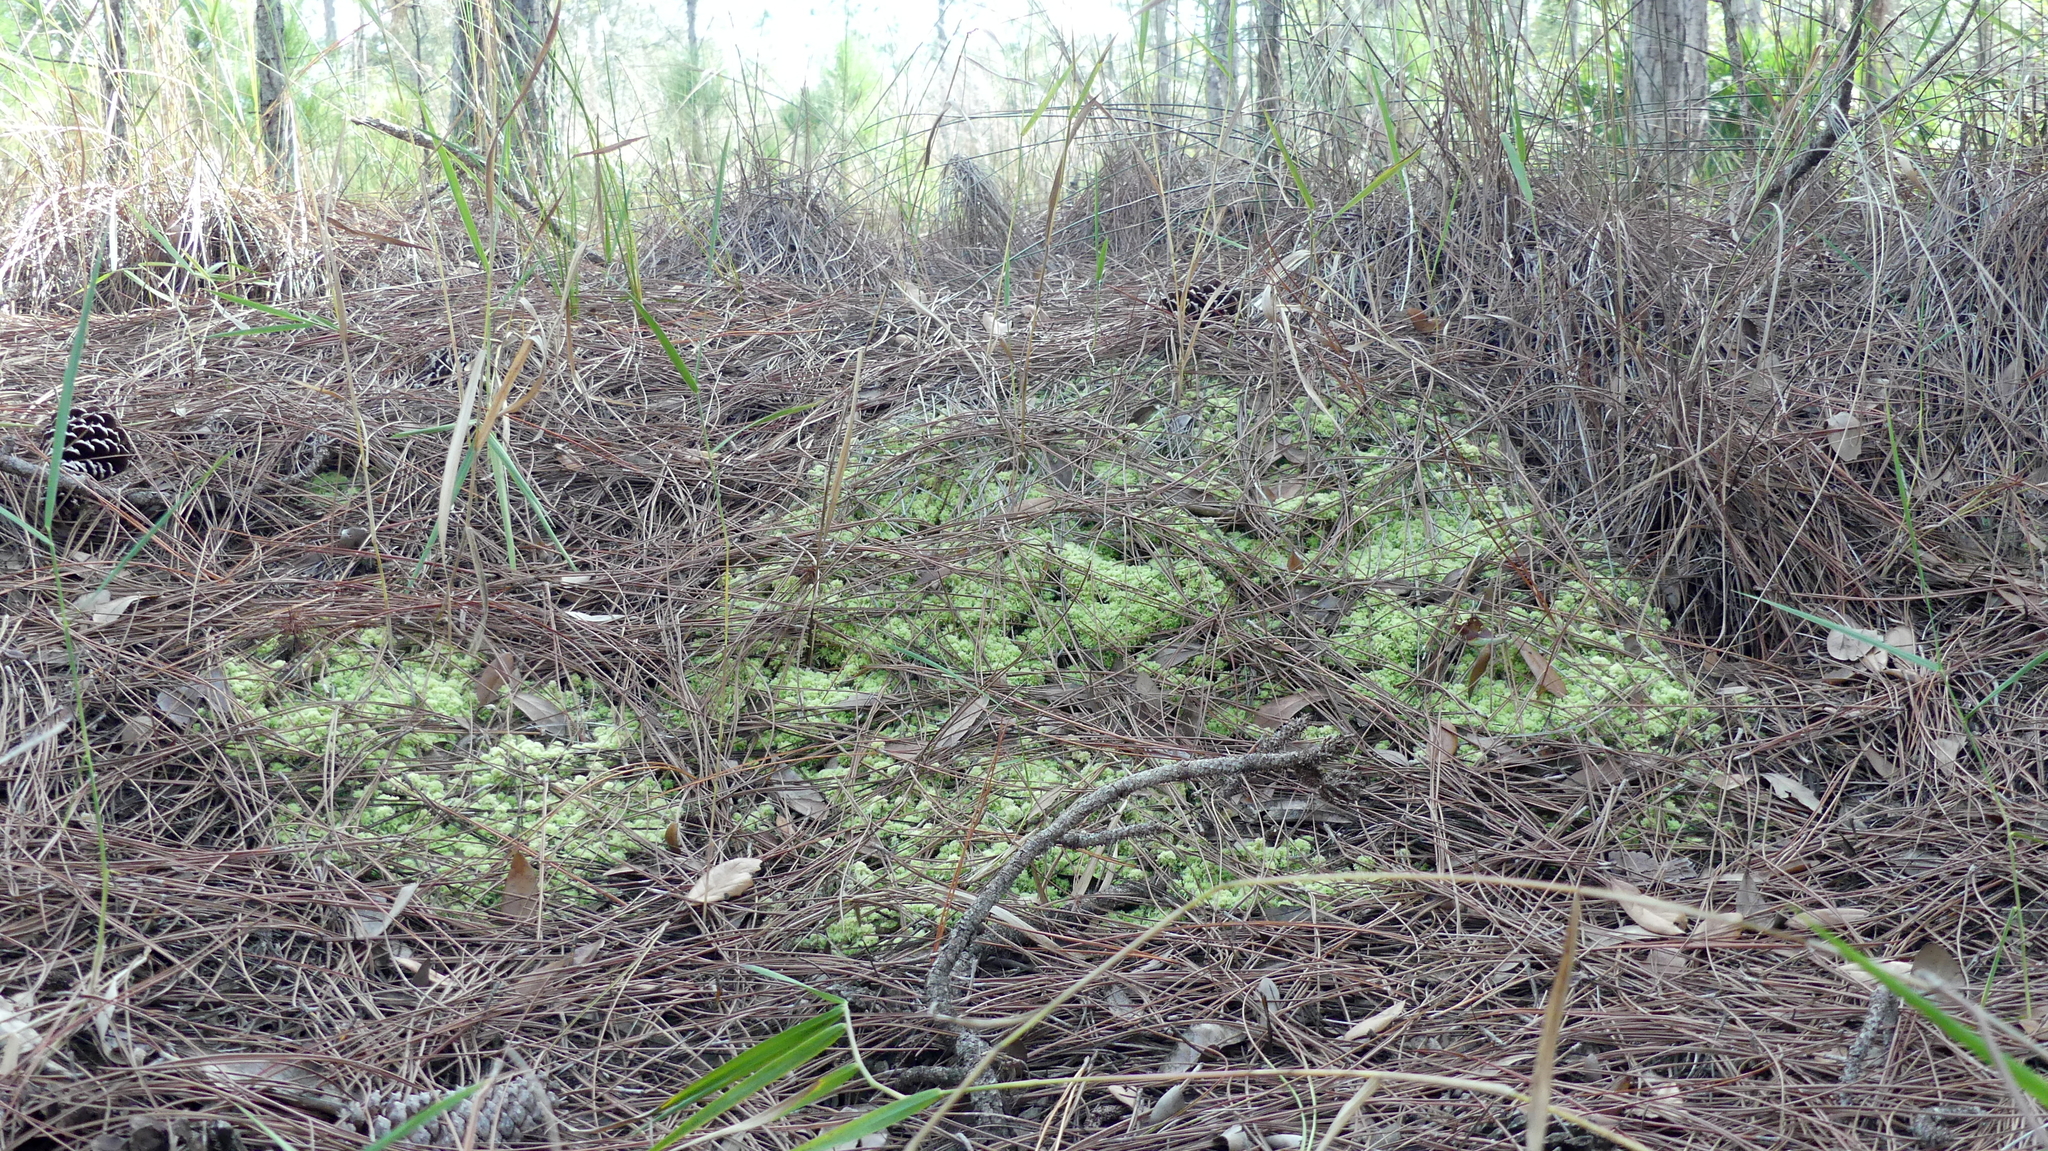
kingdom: Plantae
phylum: Bryophyta
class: Sphagnopsida
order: Sphagnales
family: Sphagnaceae
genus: Sphagnum
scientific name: Sphagnum strictum
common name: Pale bog-moss
